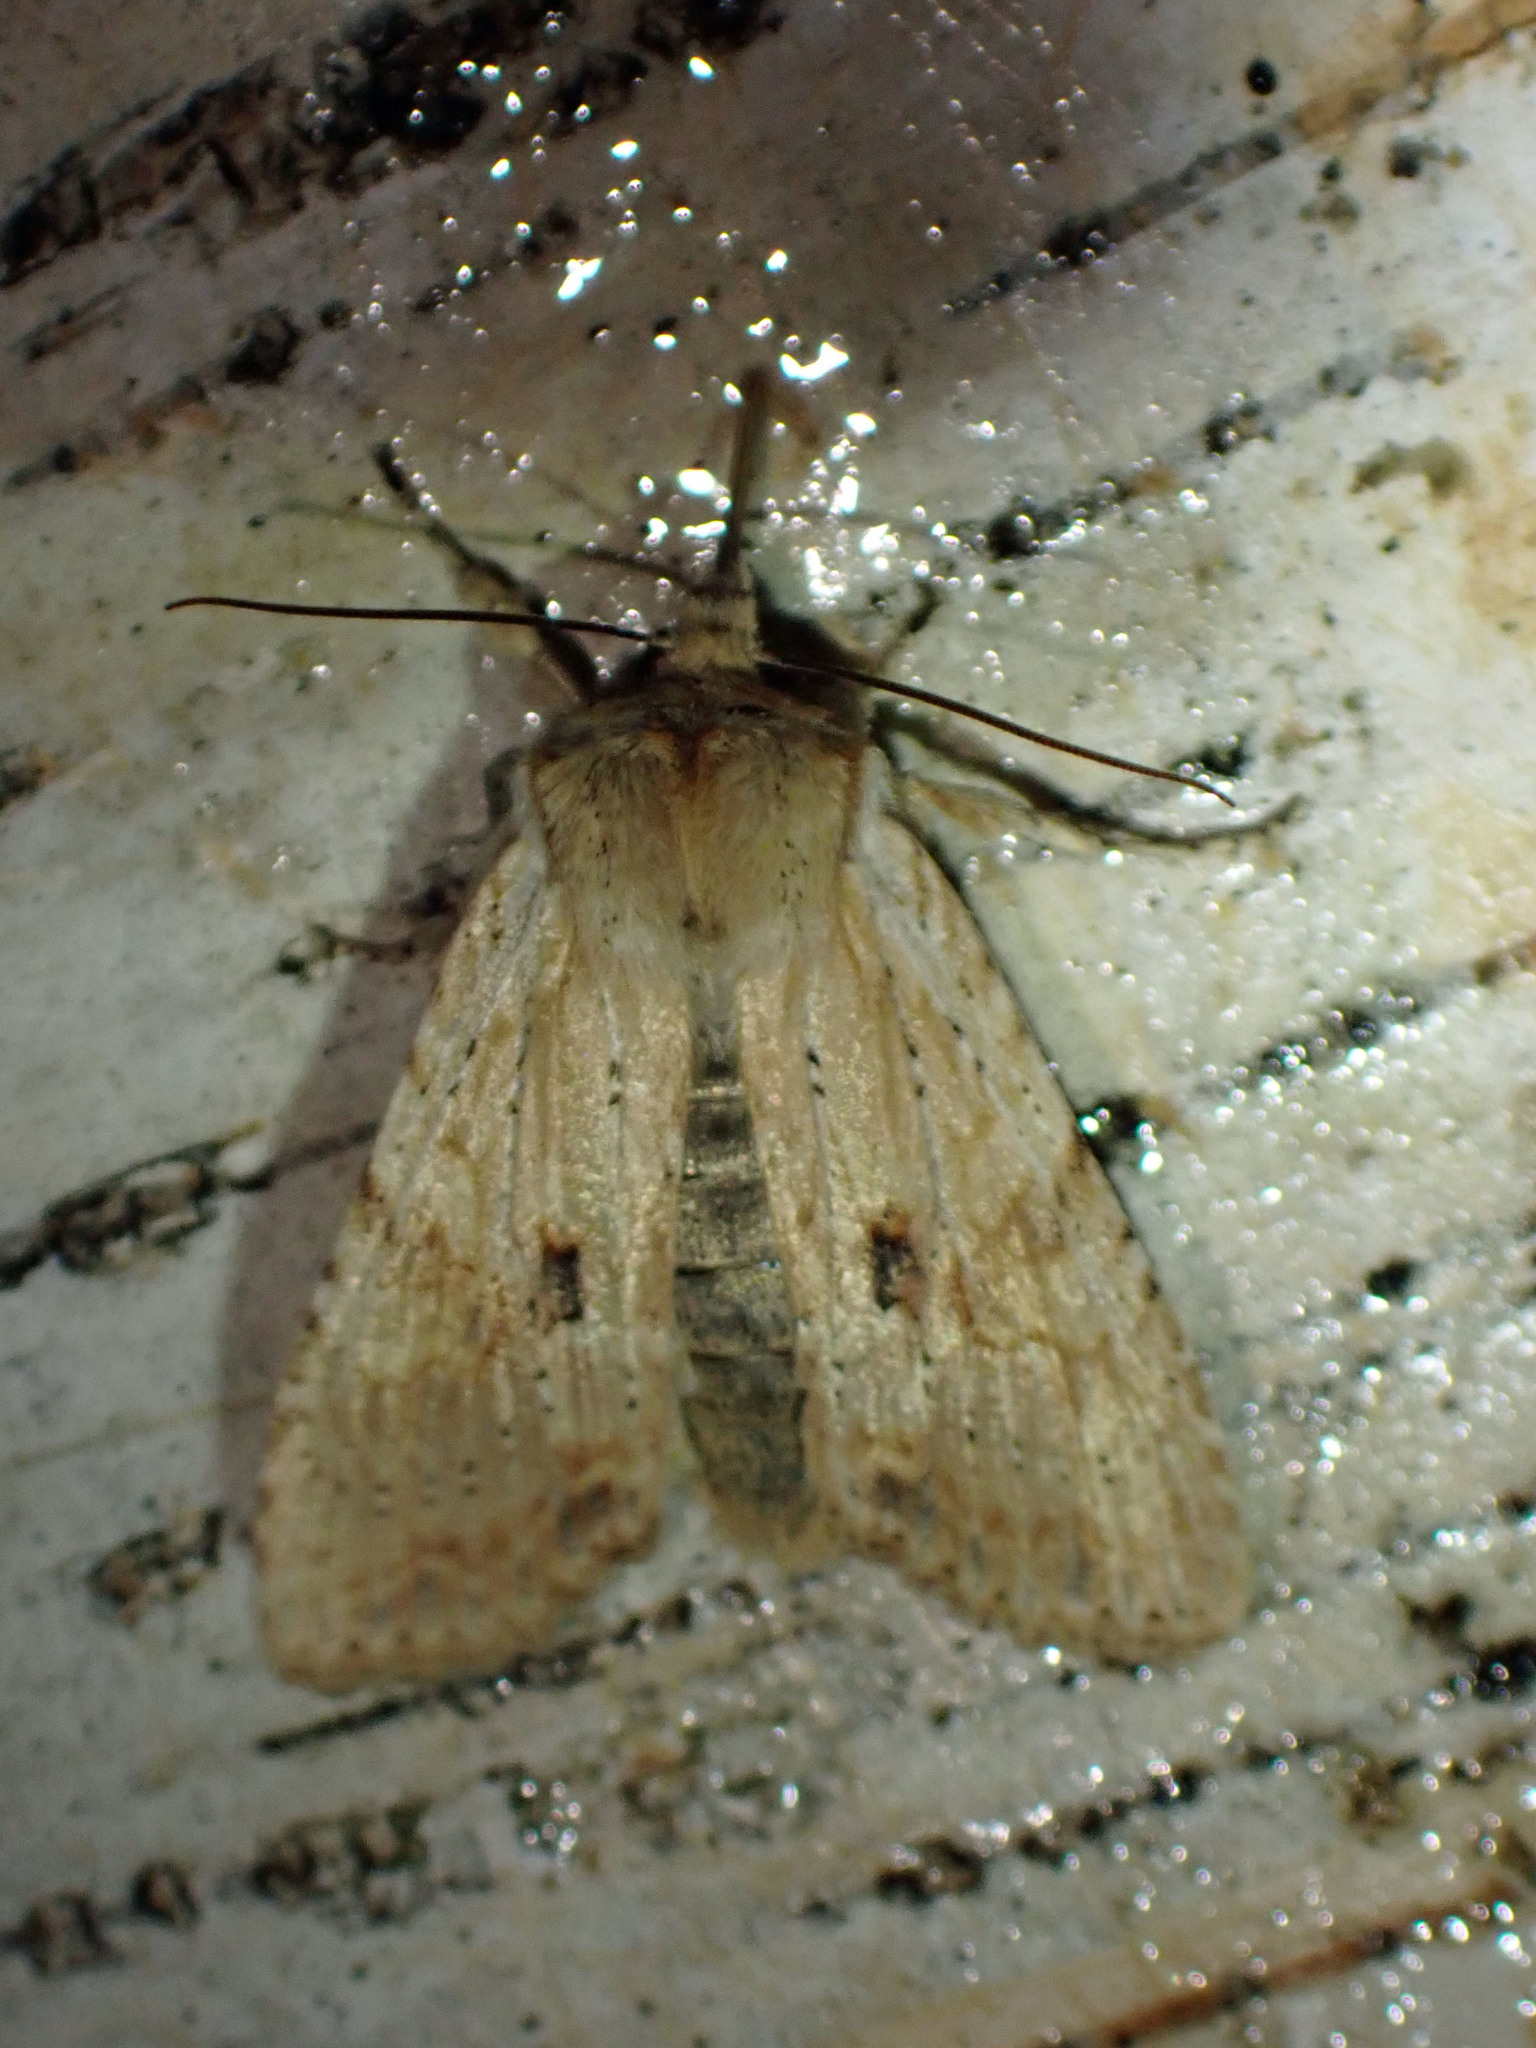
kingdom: Animalia
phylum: Arthropoda
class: Insecta
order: Lepidoptera
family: Noctuidae
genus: Lithophane
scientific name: Lithophane innominata
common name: Nameless pinion moth
